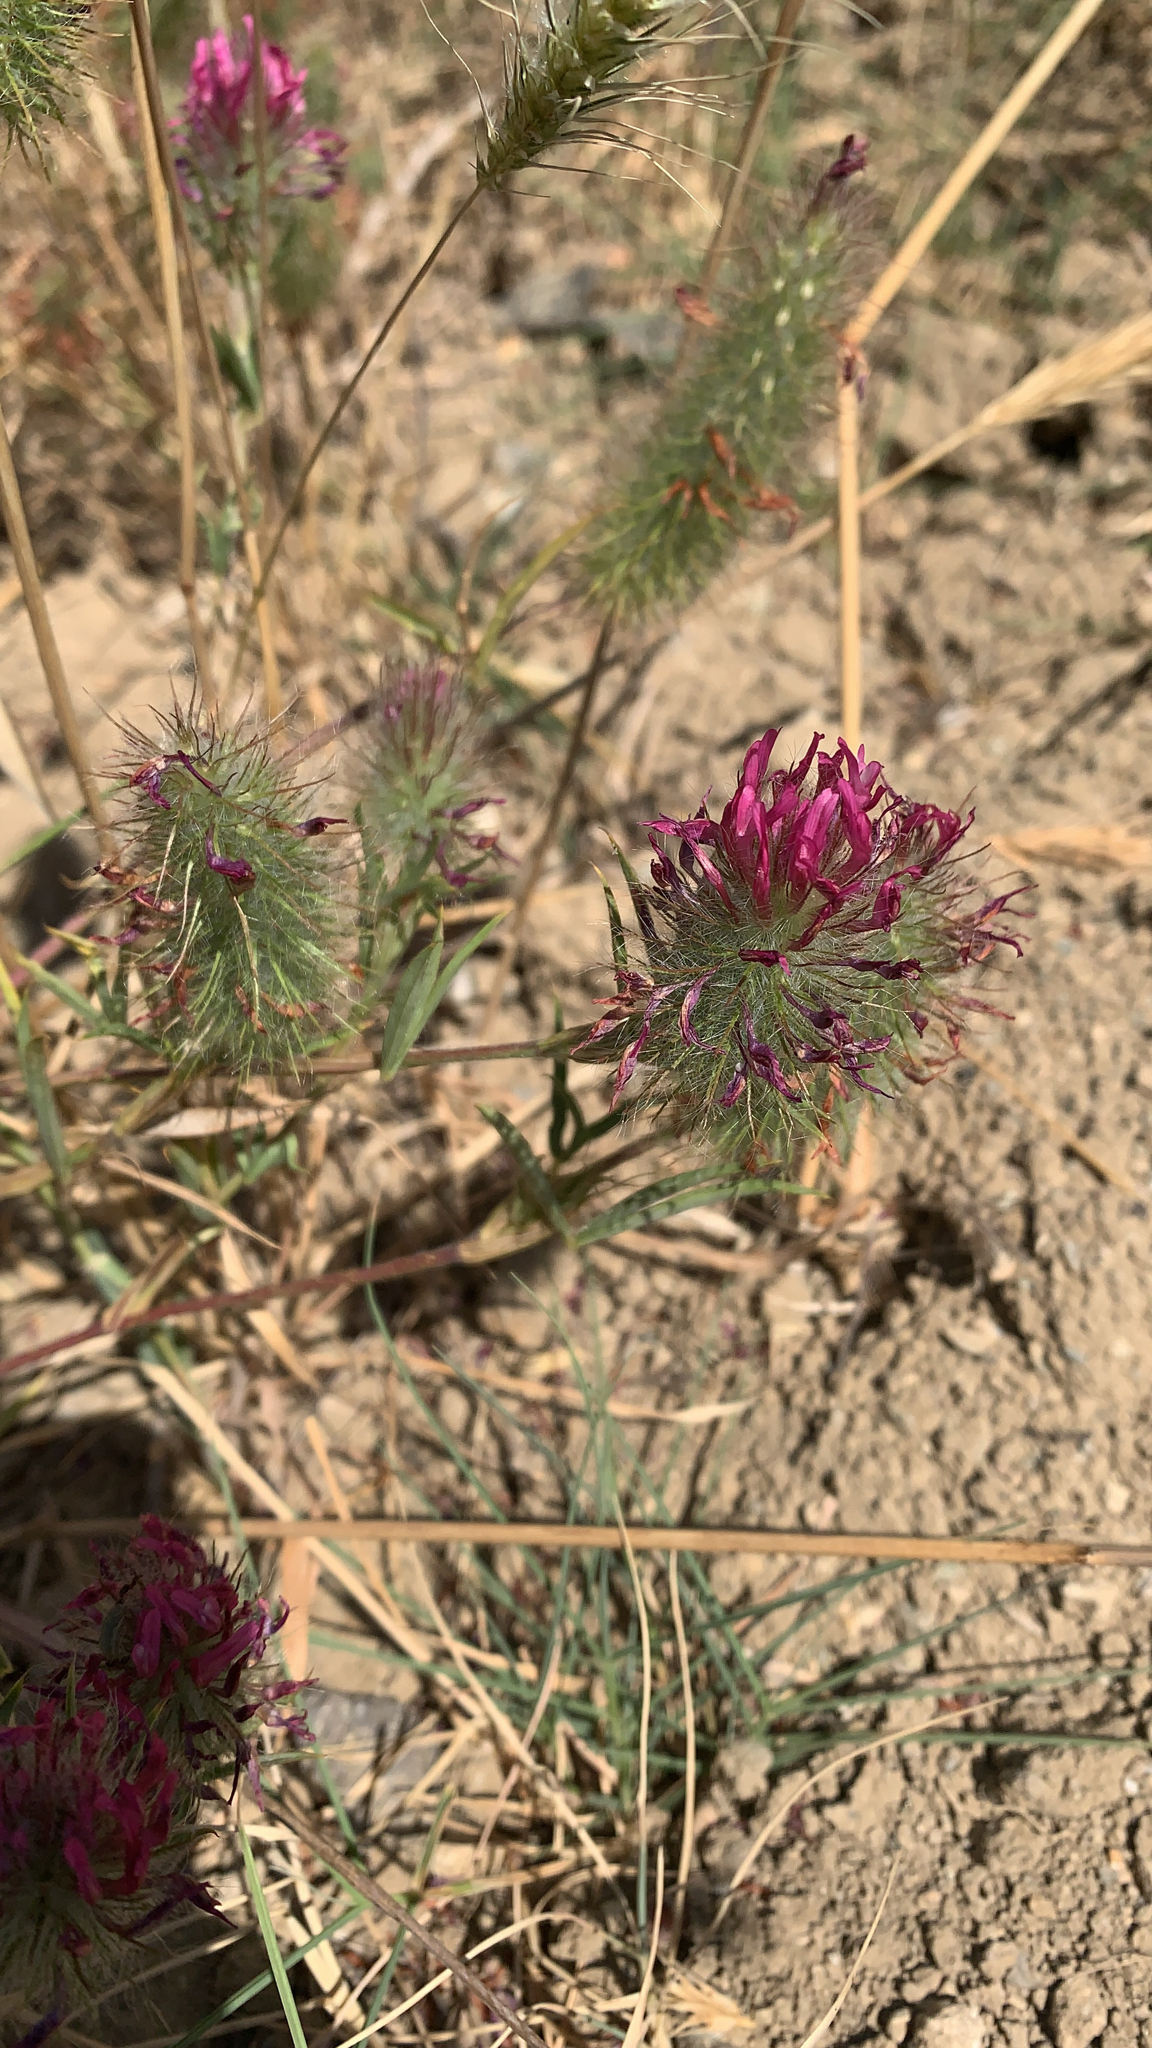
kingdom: Plantae
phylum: Tracheophyta
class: Magnoliopsida
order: Fabales
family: Fabaceae
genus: Trifolium
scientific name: Trifolium purpureum
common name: Purple clover
